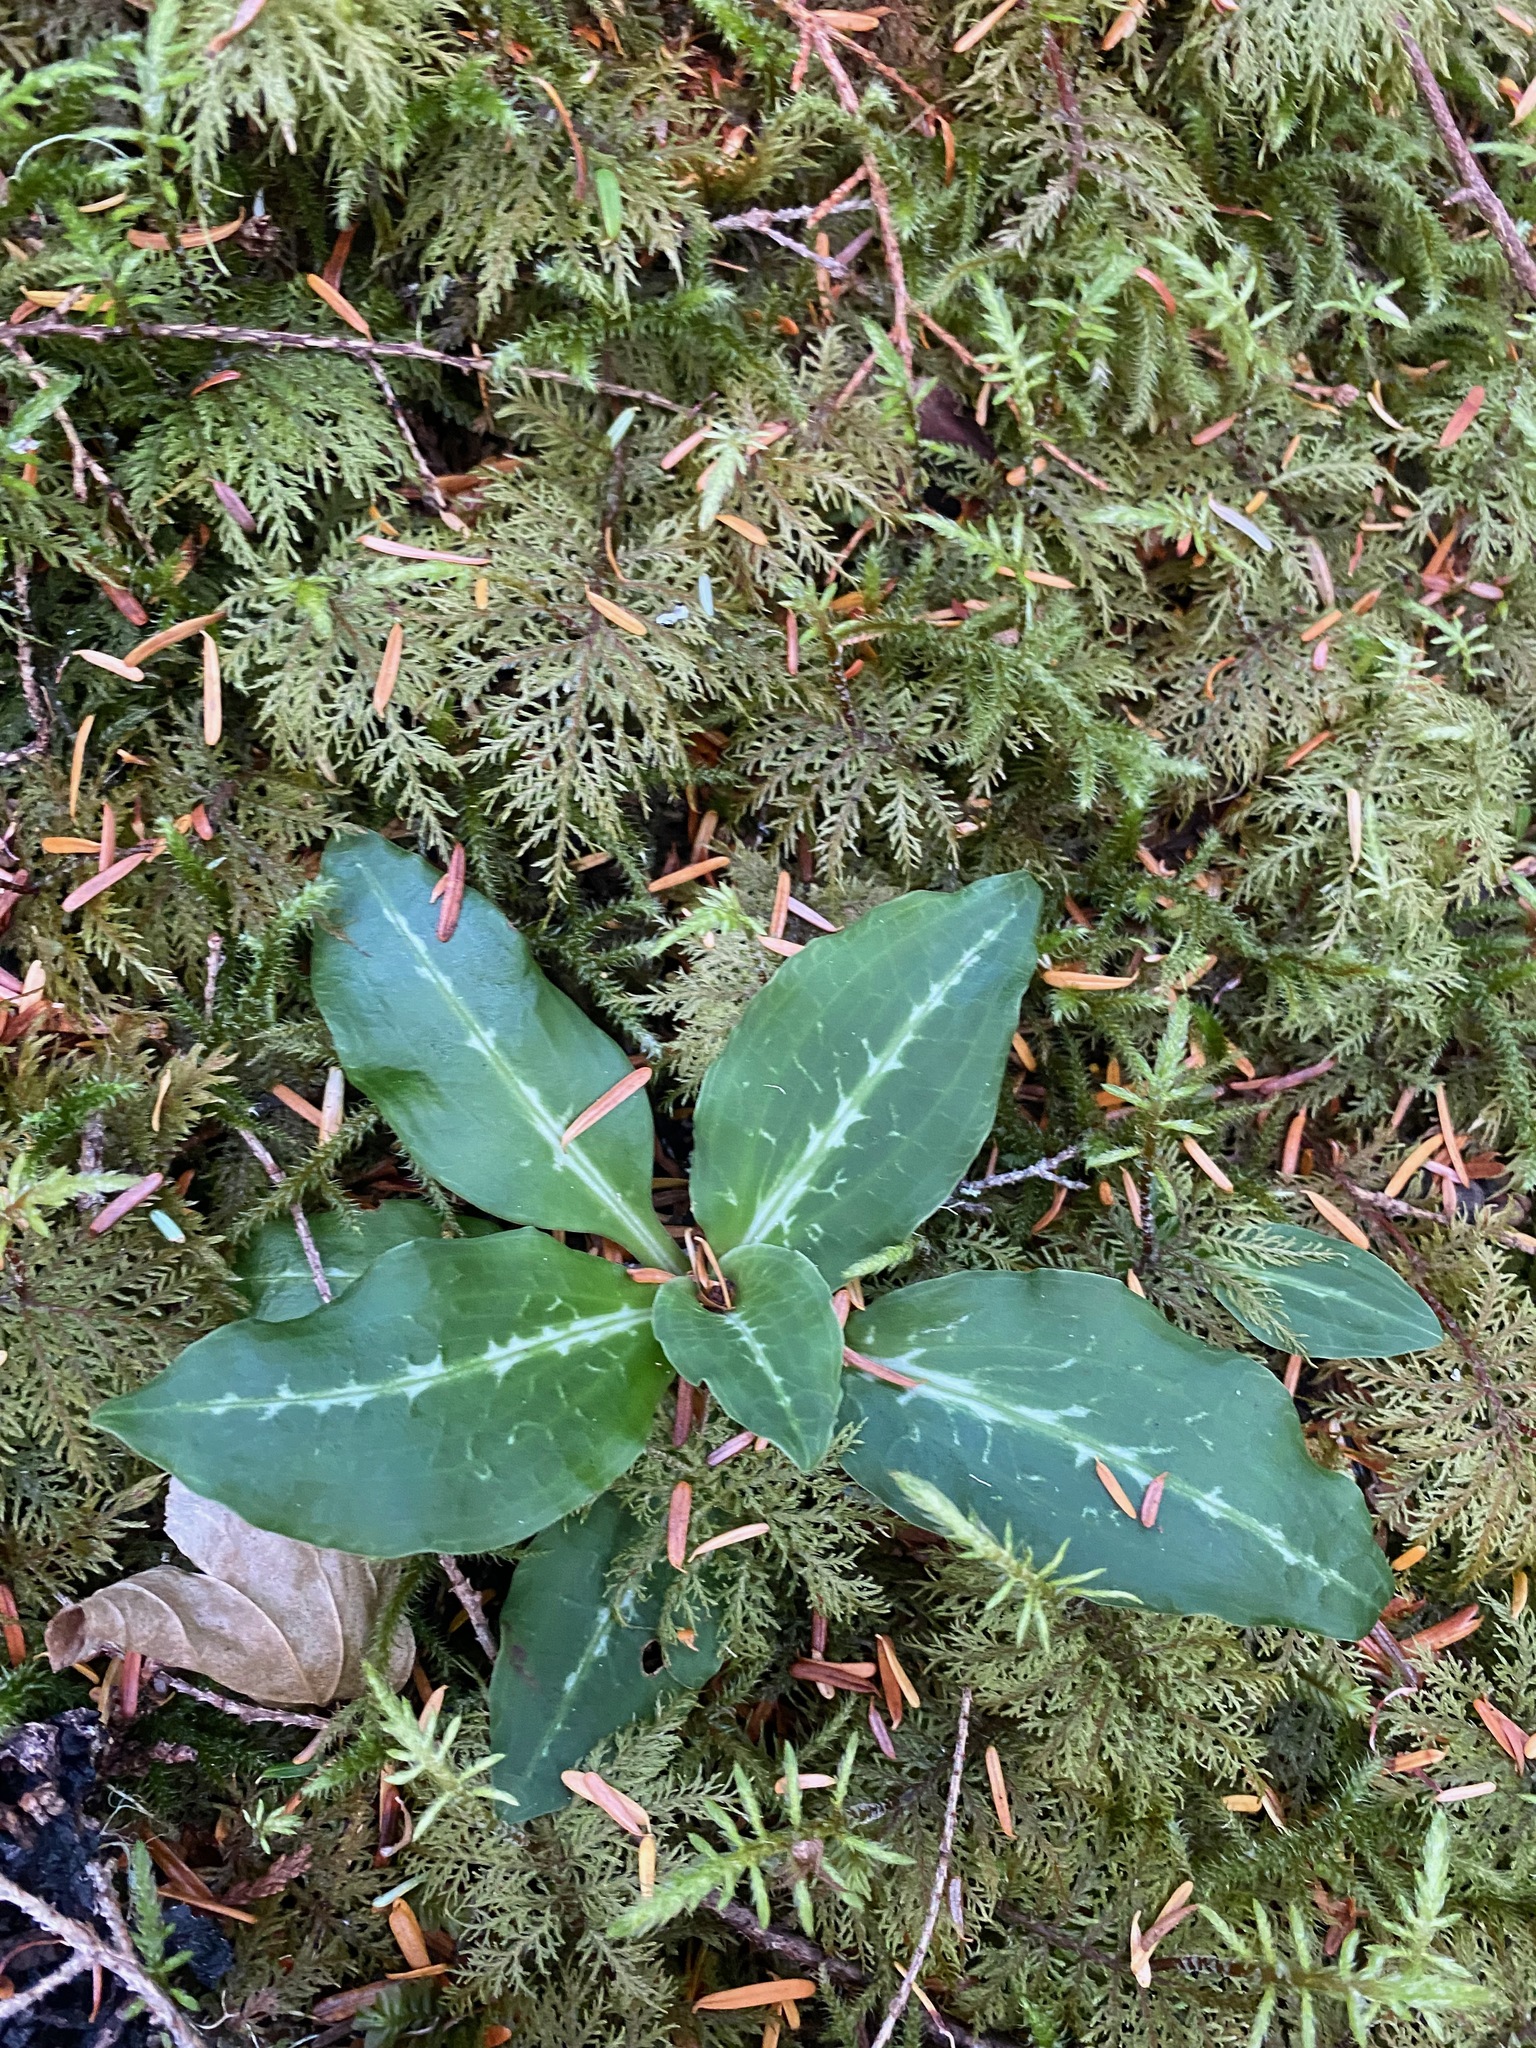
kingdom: Plantae
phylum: Tracheophyta
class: Liliopsida
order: Asparagales
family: Orchidaceae
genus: Goodyera
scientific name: Goodyera oblongifolia
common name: Giant rattlesnake-plantain
